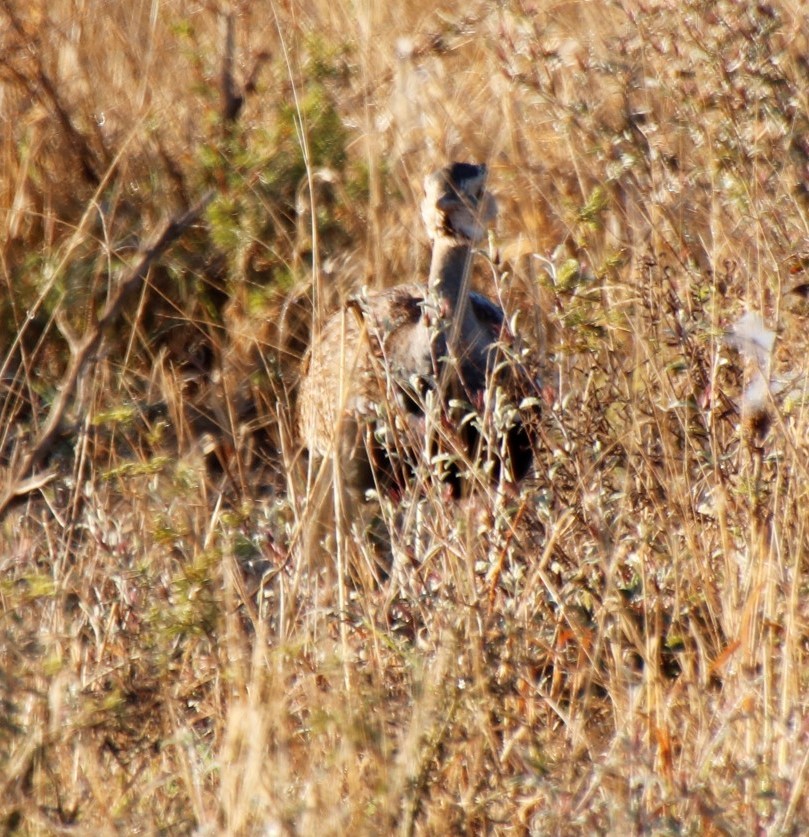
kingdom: Animalia
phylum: Chordata
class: Aves
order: Otidiformes
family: Otididae
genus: Lophotis
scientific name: Lophotis ruficrista
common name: Red-crested korhaan
